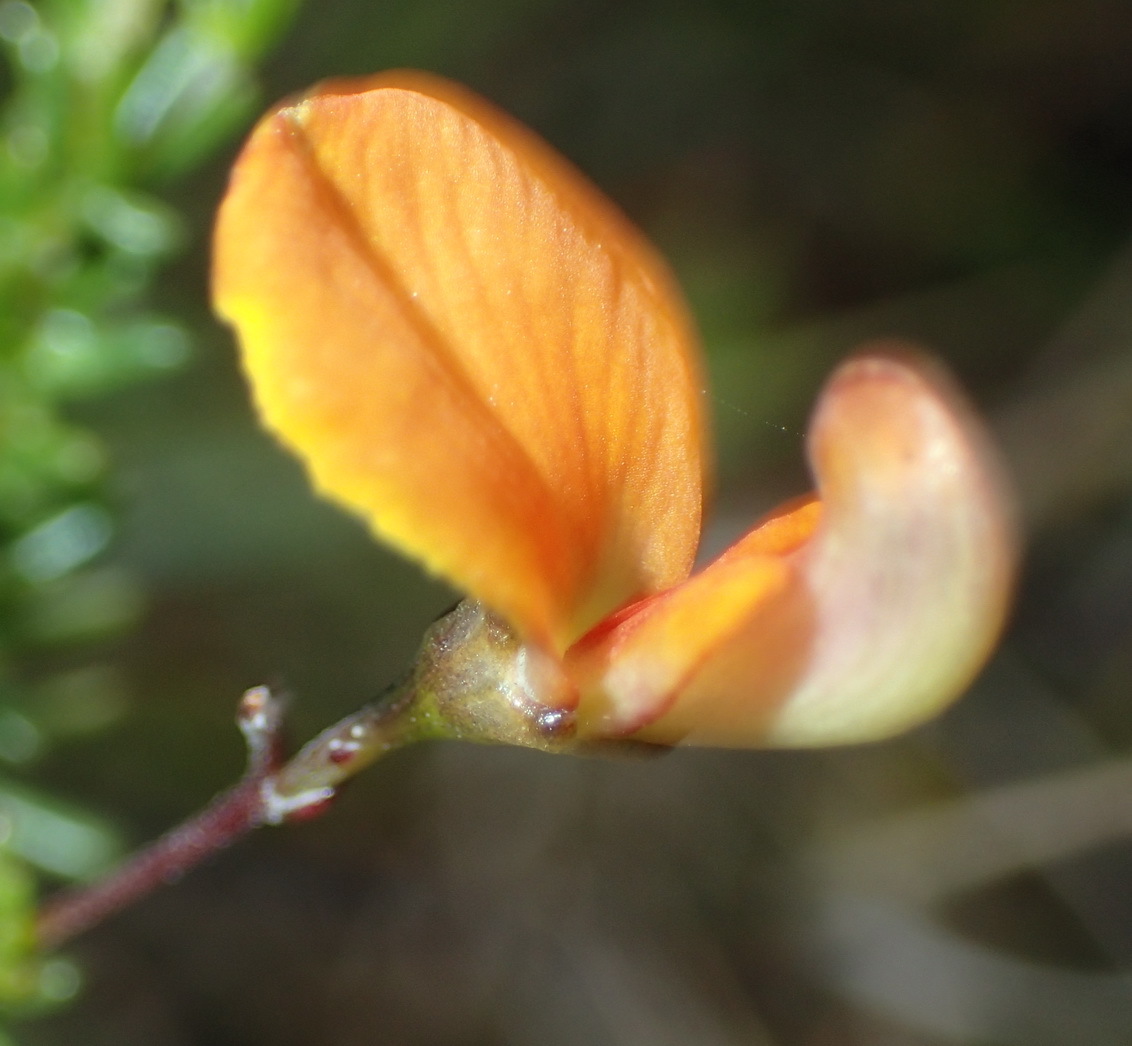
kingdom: Plantae
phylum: Tracheophyta
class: Magnoliopsida
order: Fabales
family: Fabaceae
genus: Aspalathus
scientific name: Aspalathus biflora
